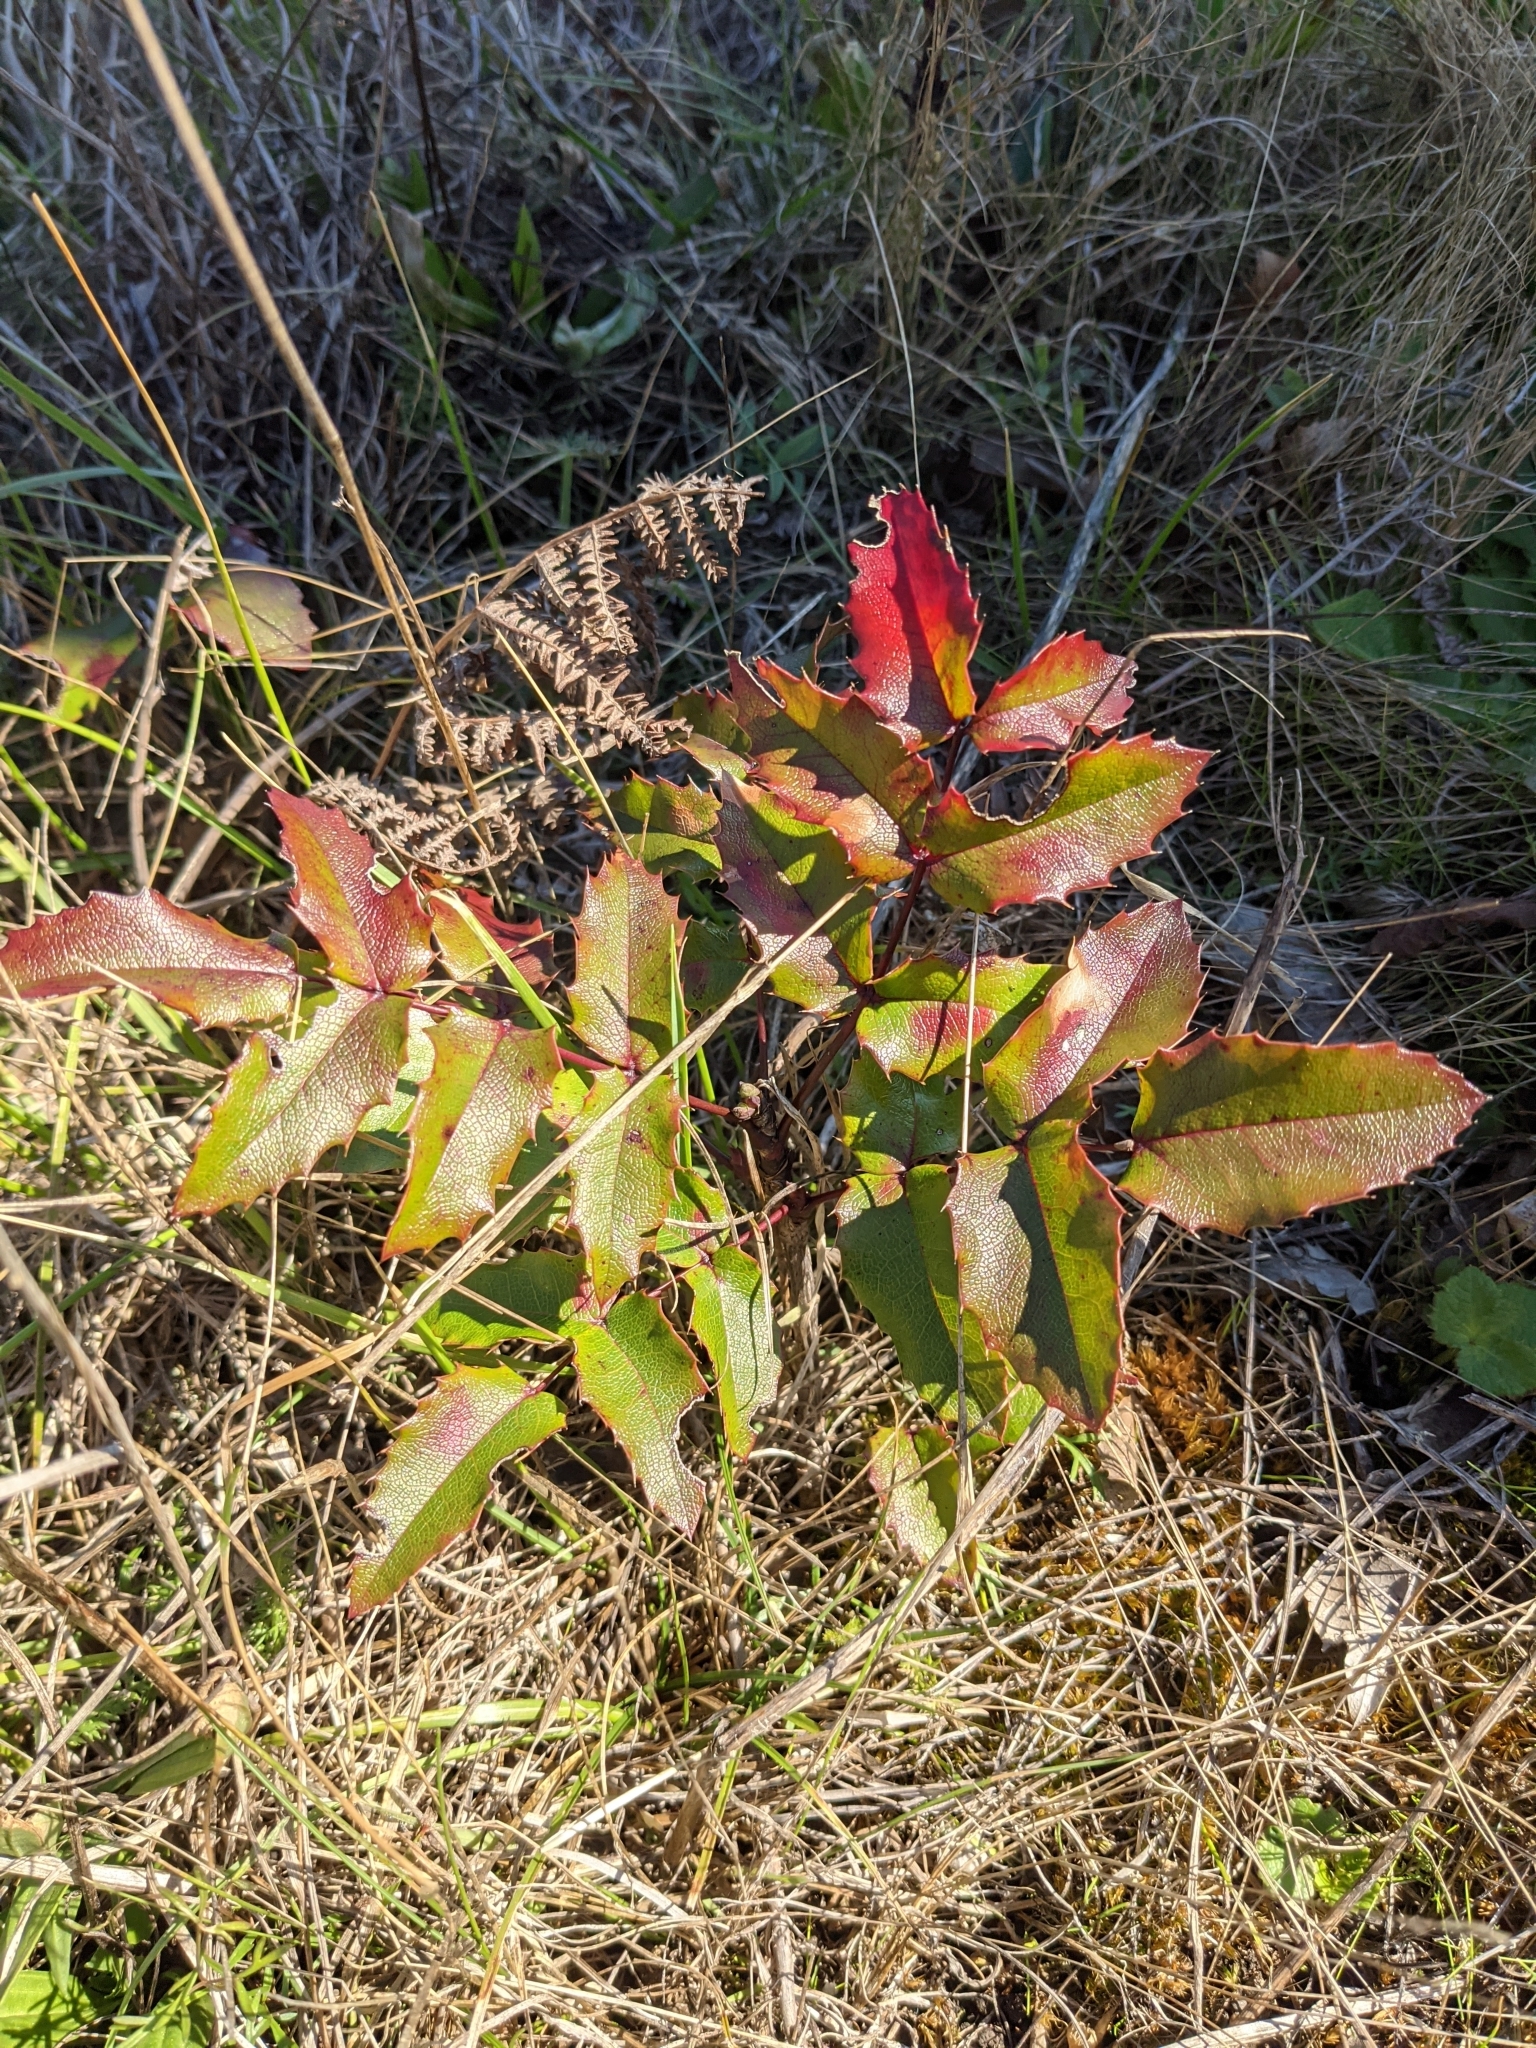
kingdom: Plantae
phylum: Tracheophyta
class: Magnoliopsida
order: Ranunculales
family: Berberidaceae
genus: Mahonia
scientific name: Mahonia aquifolium
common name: Oregon-grape
